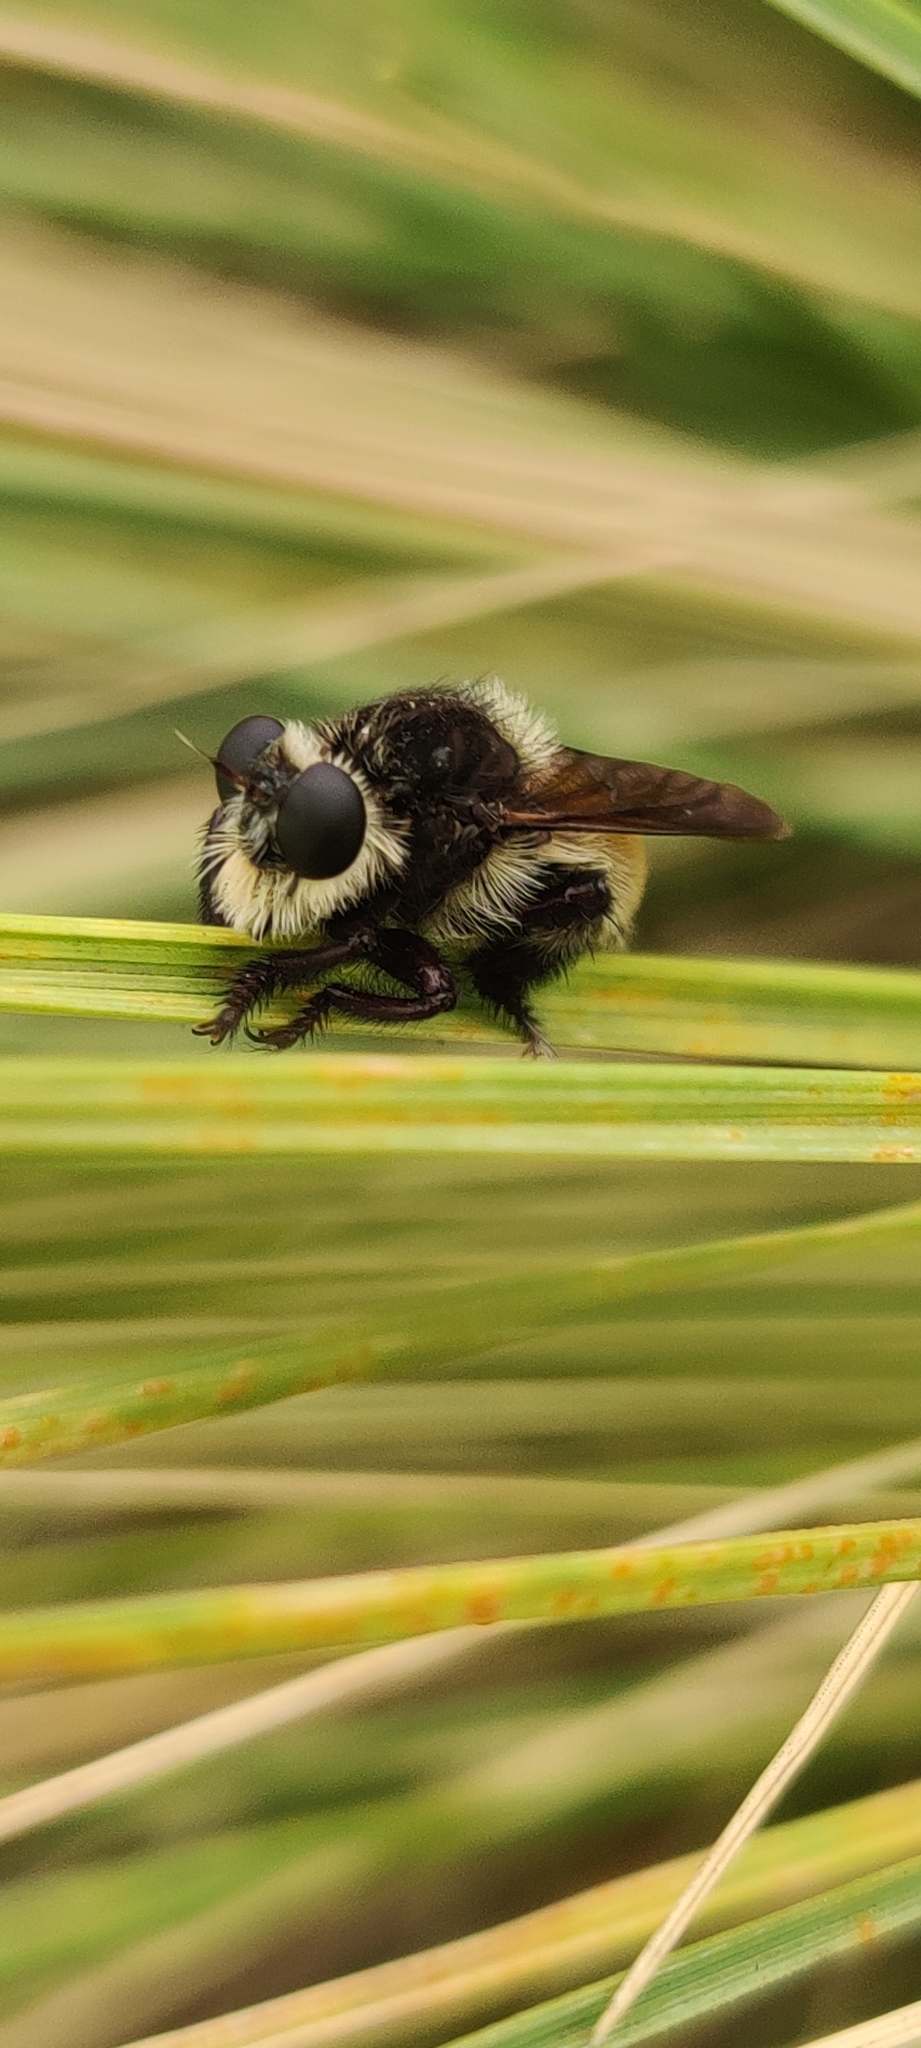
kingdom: Animalia
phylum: Arthropoda
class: Insecta
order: Diptera
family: Asilidae
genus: Mallophora
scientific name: Mallophora fautrix
